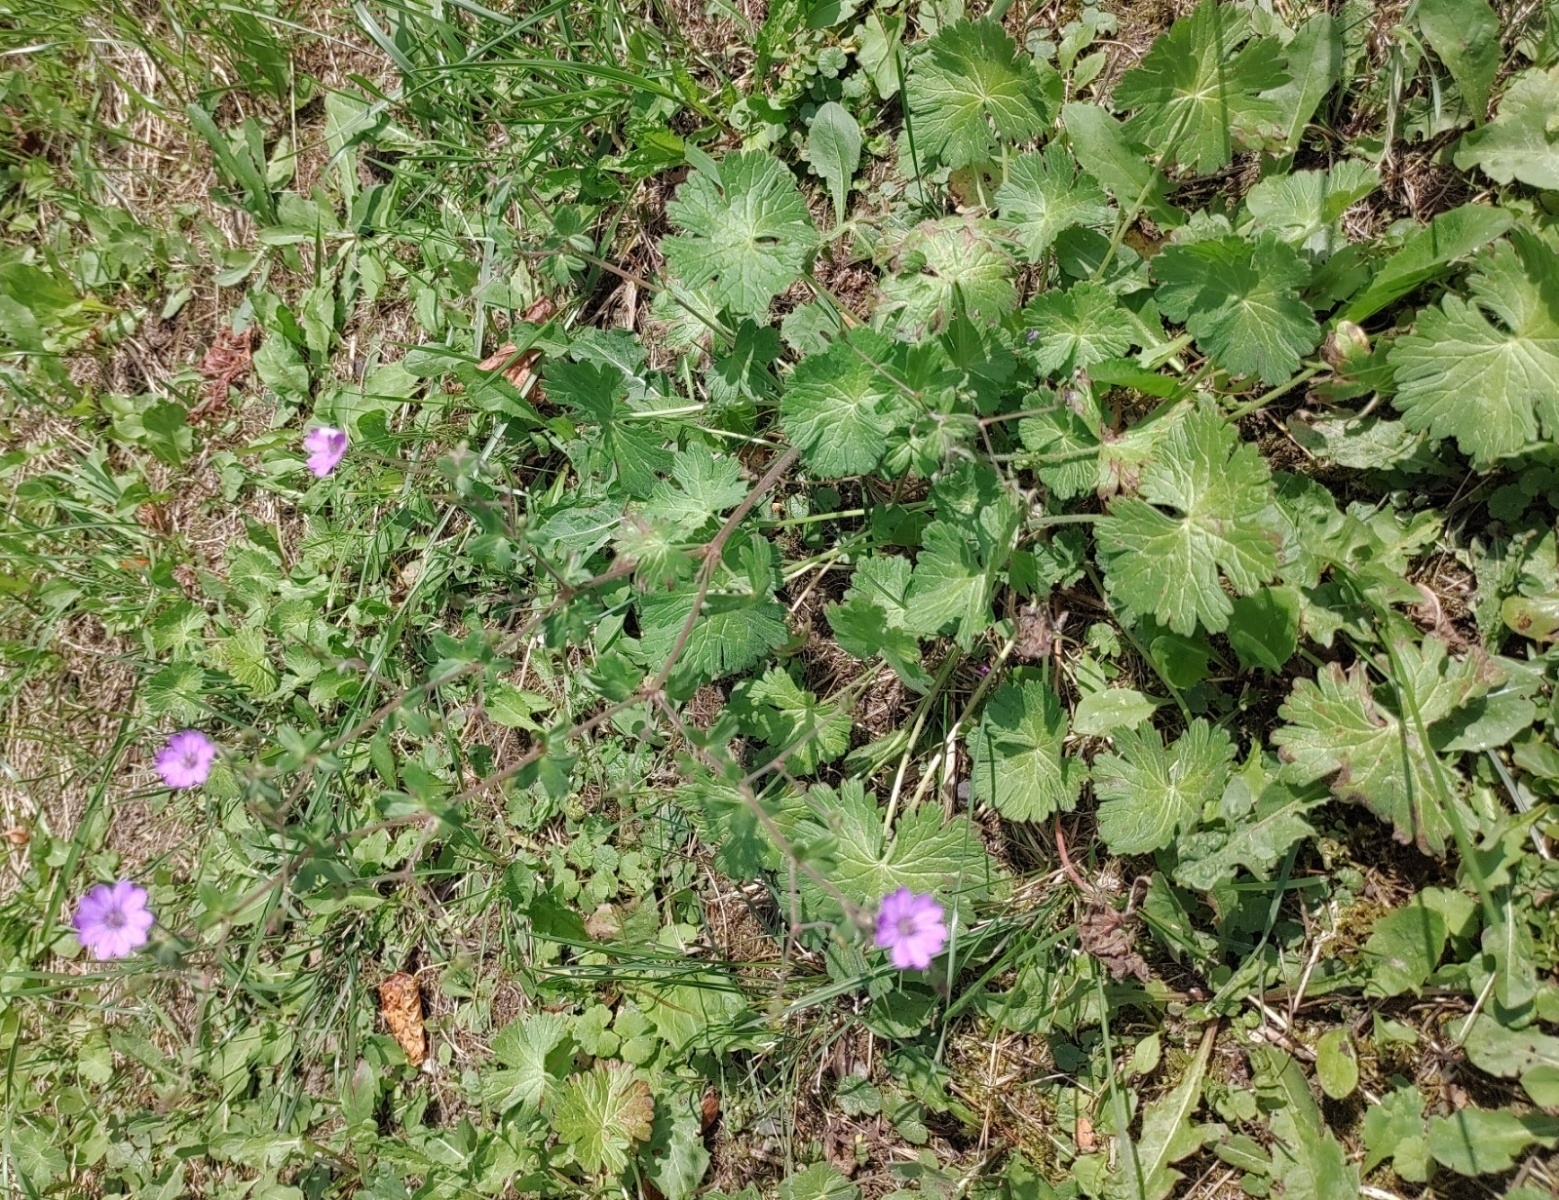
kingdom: Plantae
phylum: Tracheophyta
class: Magnoliopsida
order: Geraniales
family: Geraniaceae
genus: Geranium
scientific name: Geranium pyrenaicum
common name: Hedgerow crane's-bill
